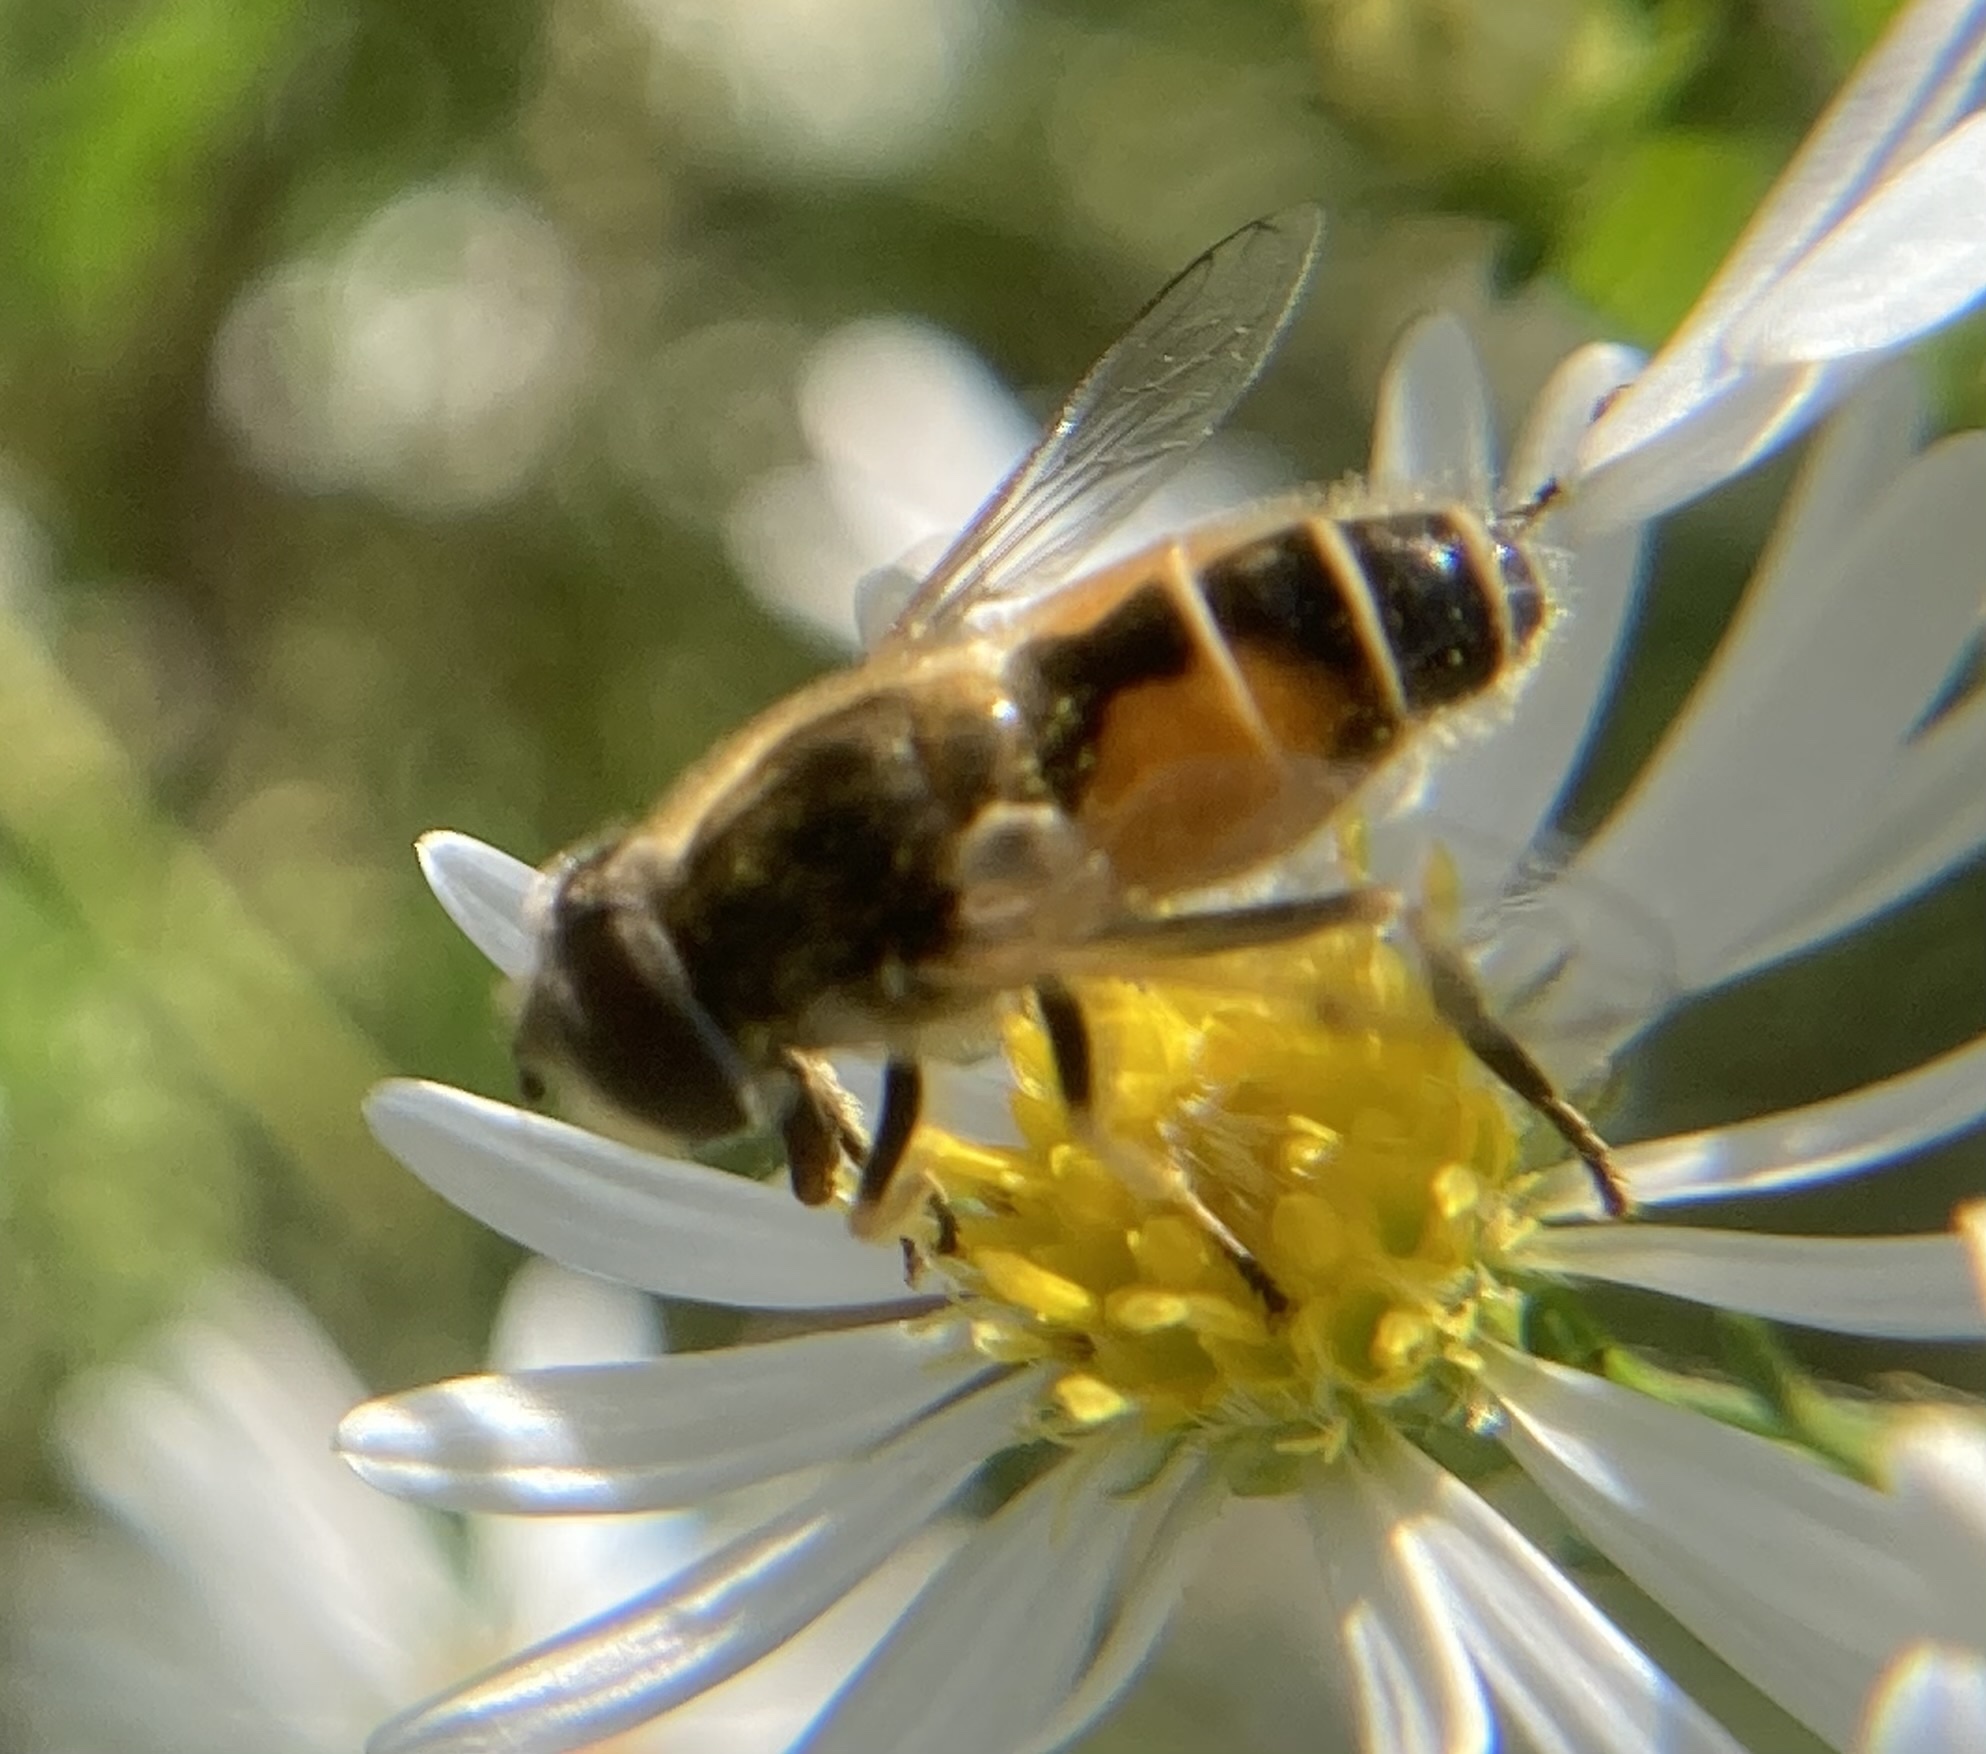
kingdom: Animalia
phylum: Arthropoda
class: Insecta
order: Diptera
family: Syrphidae
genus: Eristalis
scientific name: Eristalis arbustorum
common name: Hover fly
